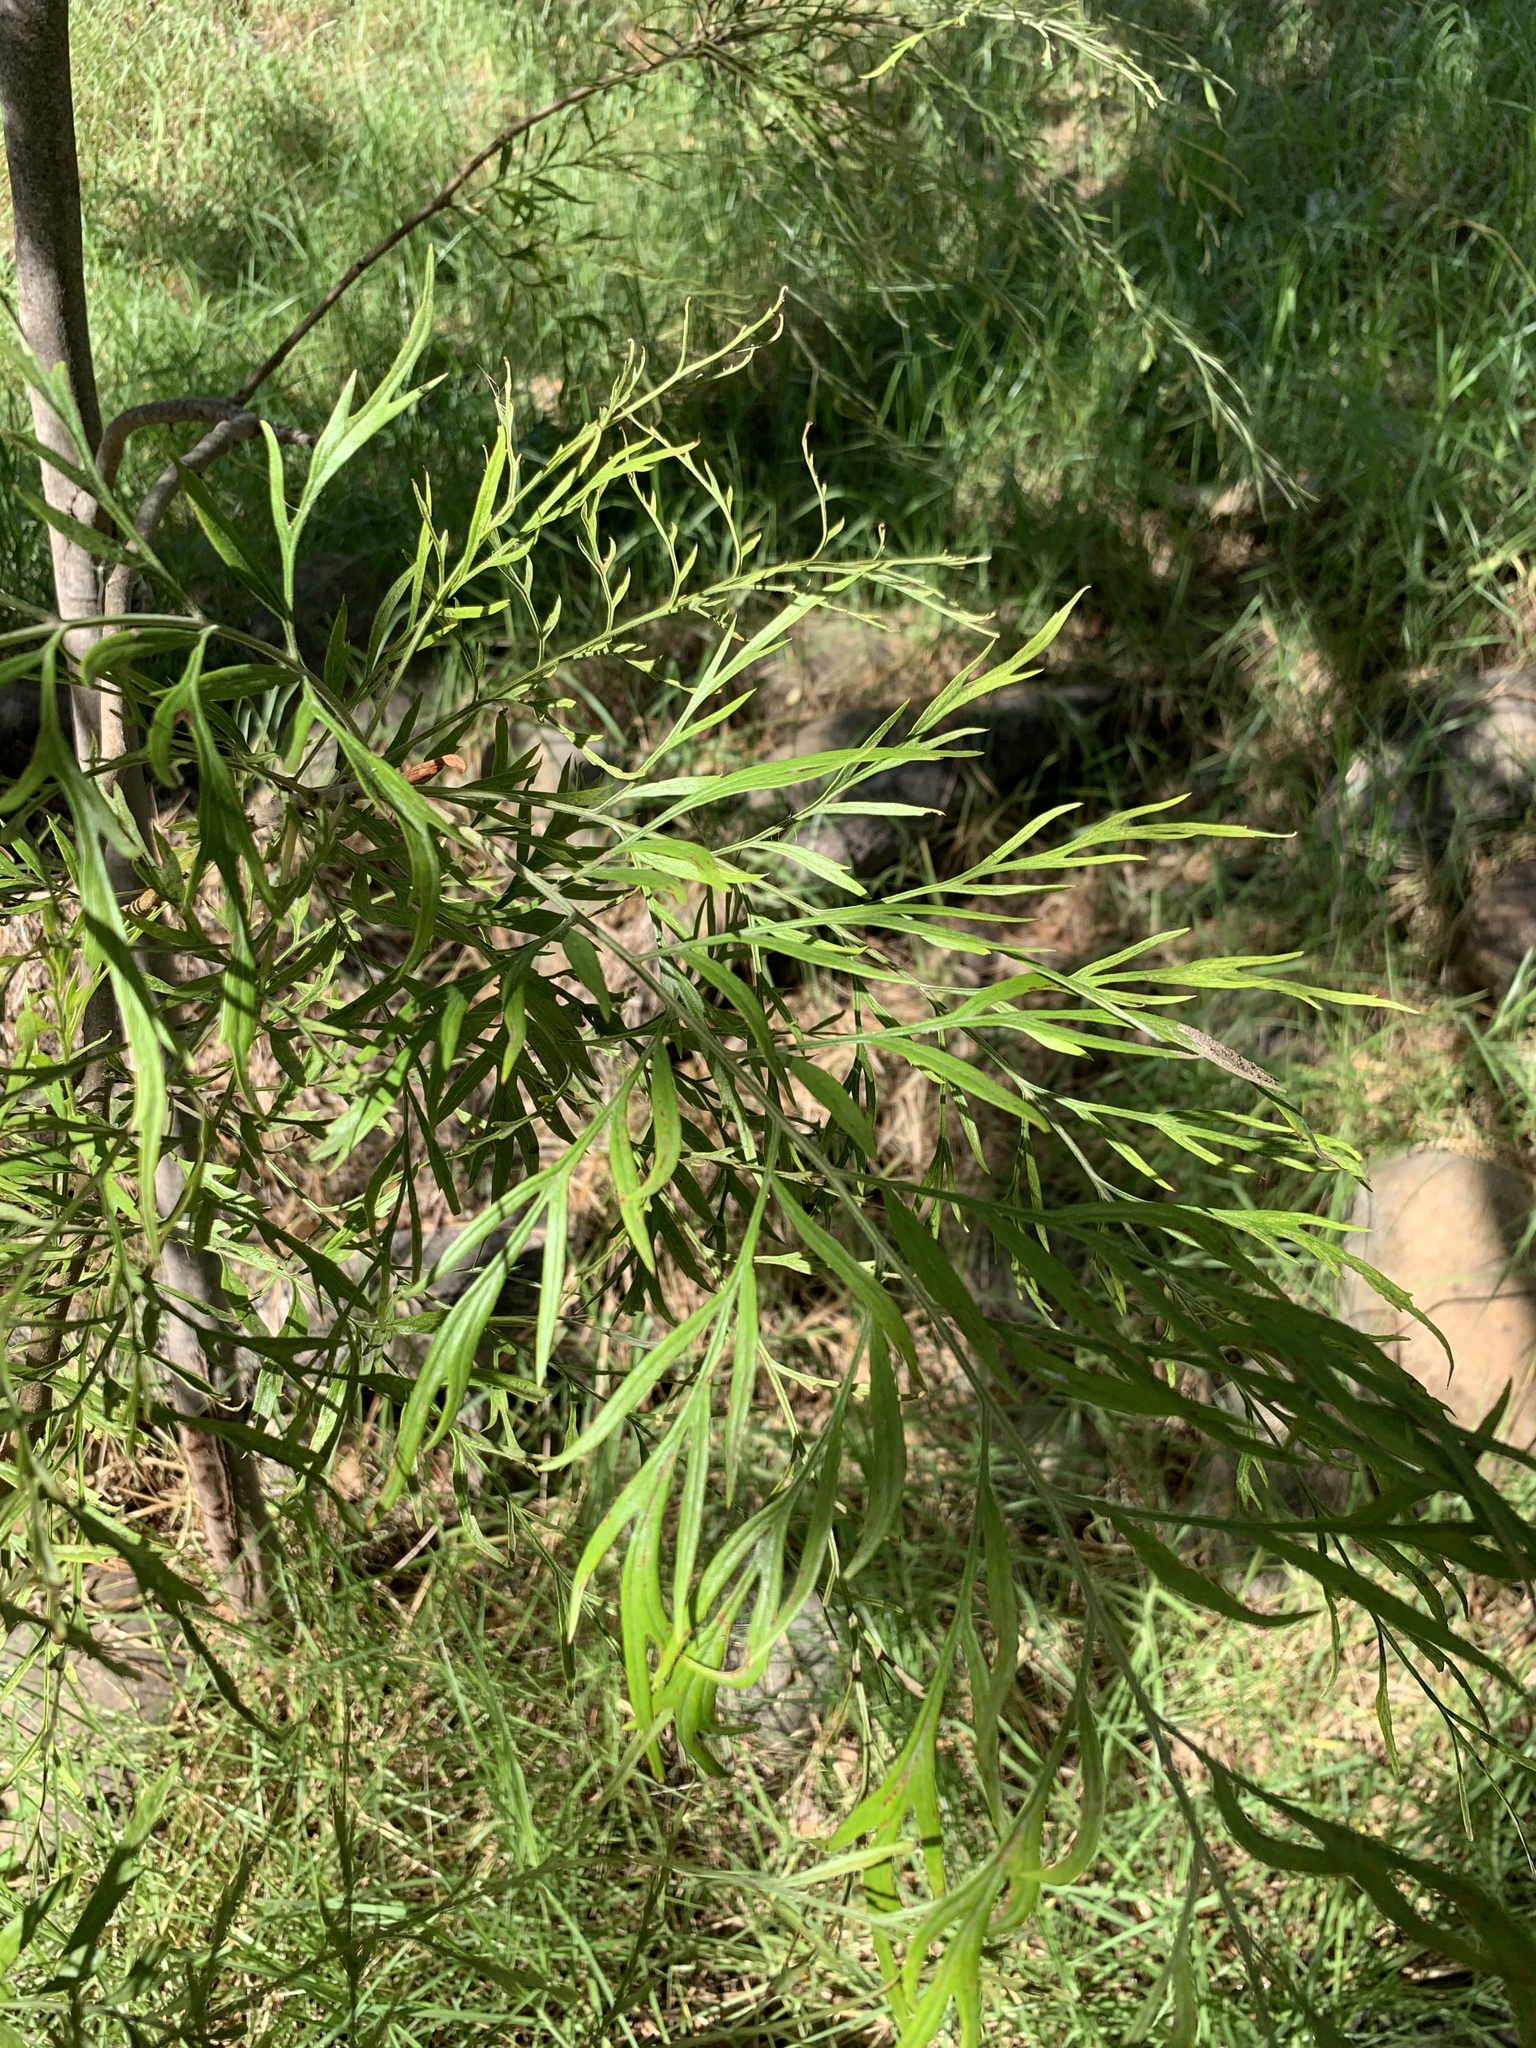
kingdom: Plantae
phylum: Tracheophyta
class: Magnoliopsida
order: Proteales
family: Proteaceae
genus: Grevillea
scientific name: Grevillea robusta
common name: Silkoak
